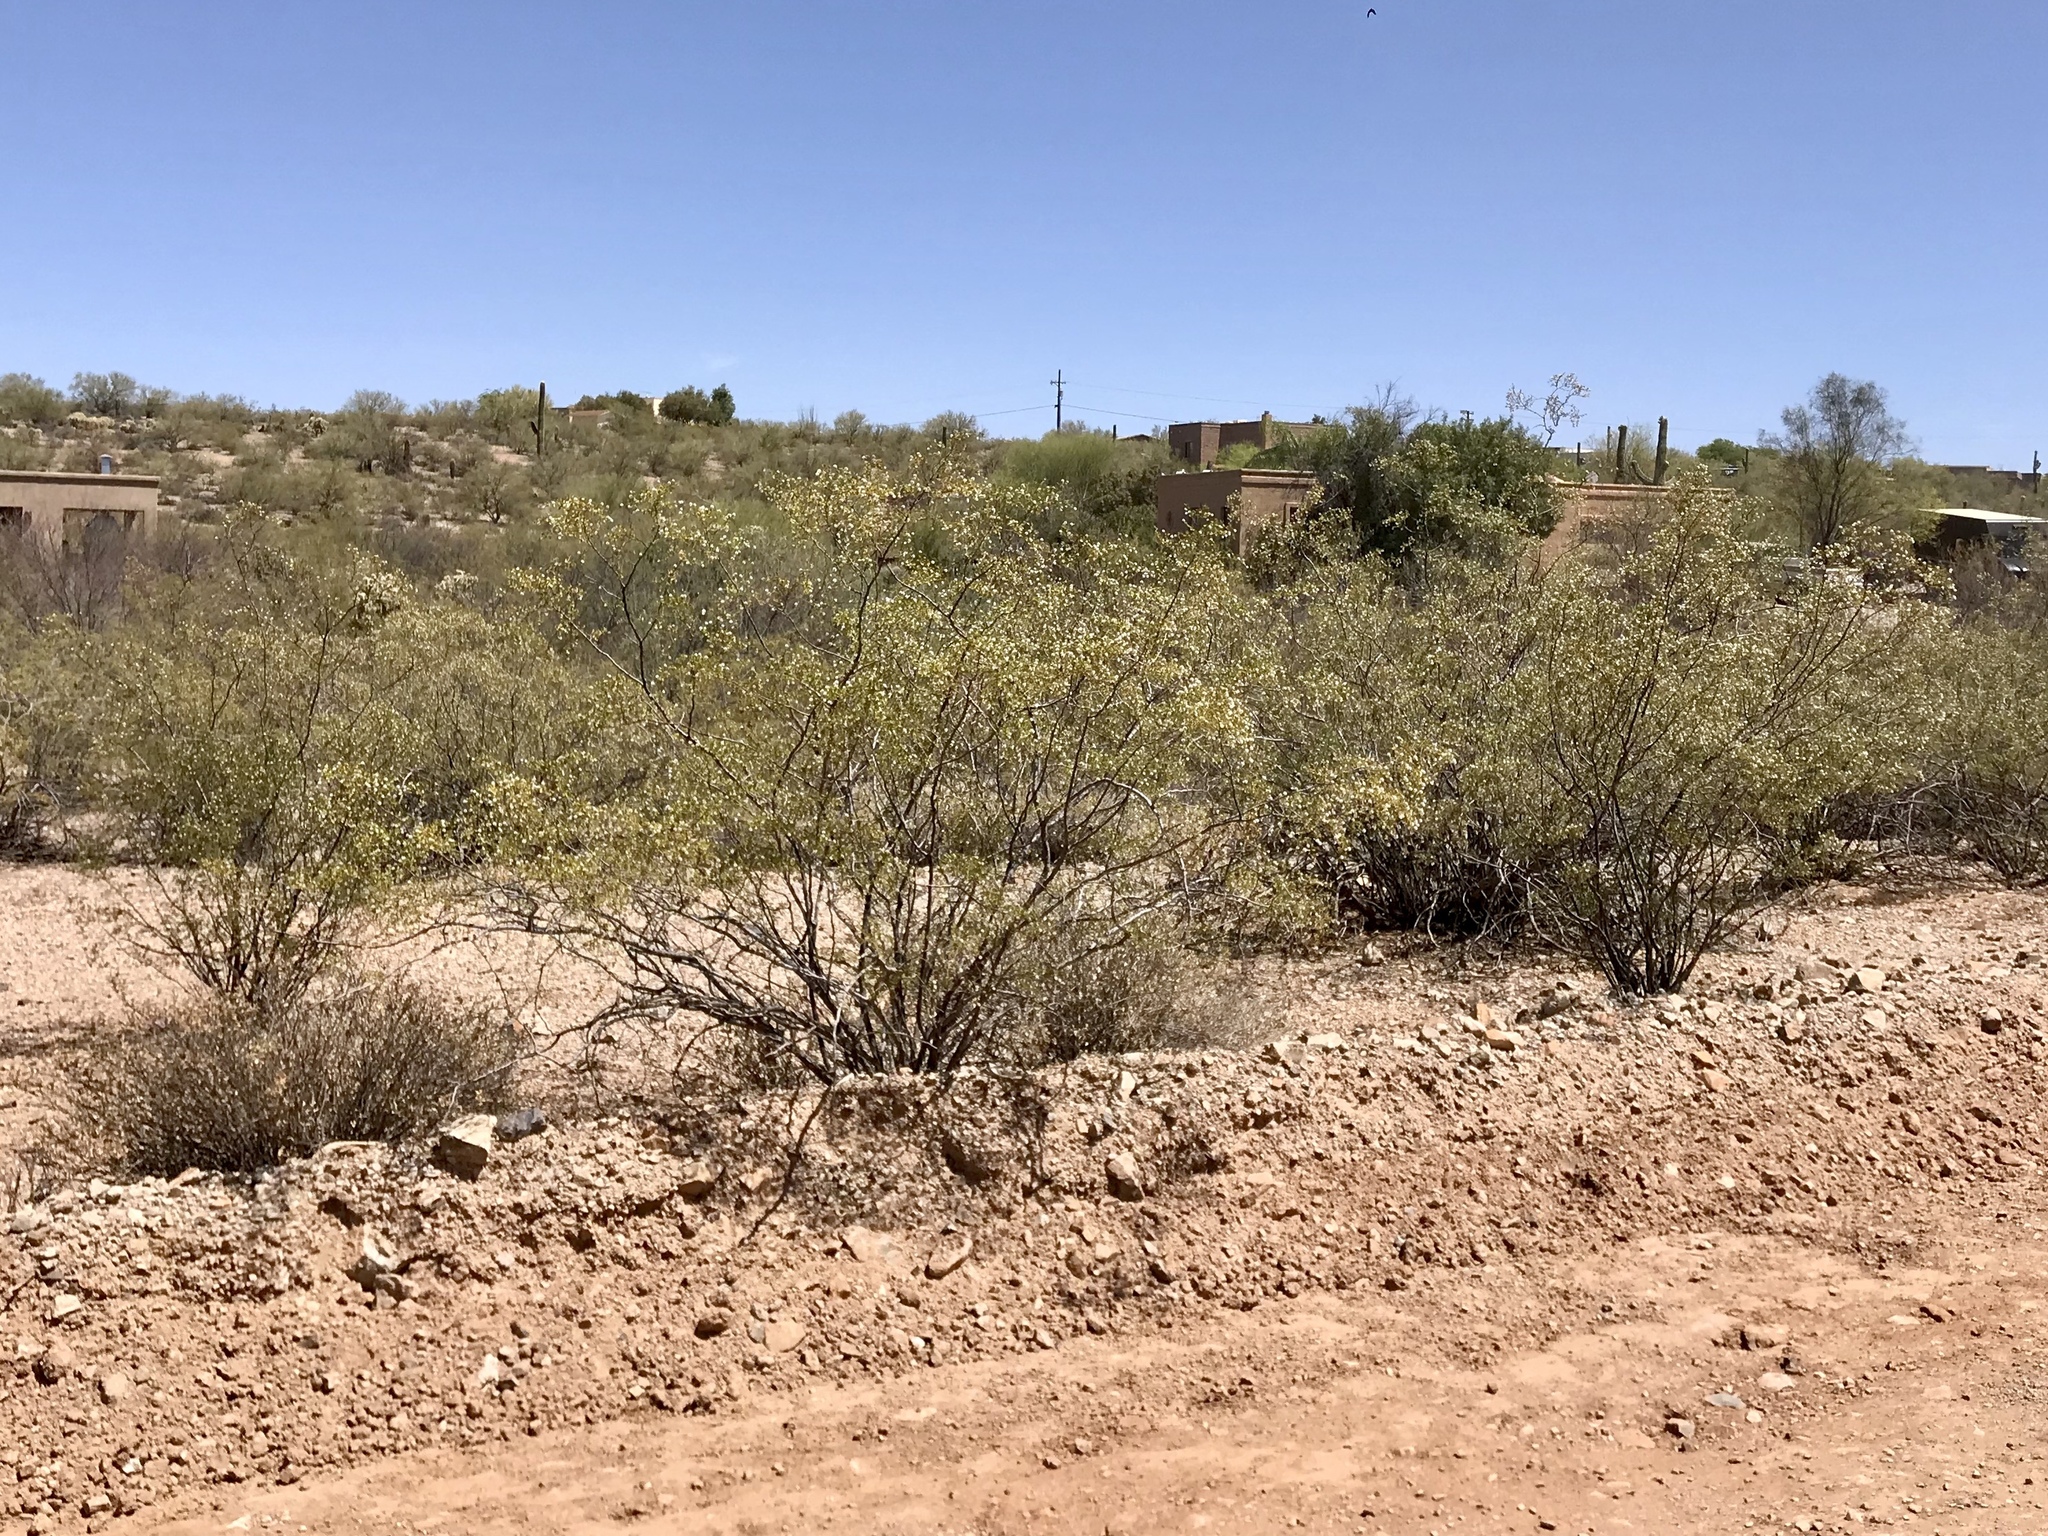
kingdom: Plantae
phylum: Tracheophyta
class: Magnoliopsida
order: Zygophyllales
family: Zygophyllaceae
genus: Larrea
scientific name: Larrea tridentata
